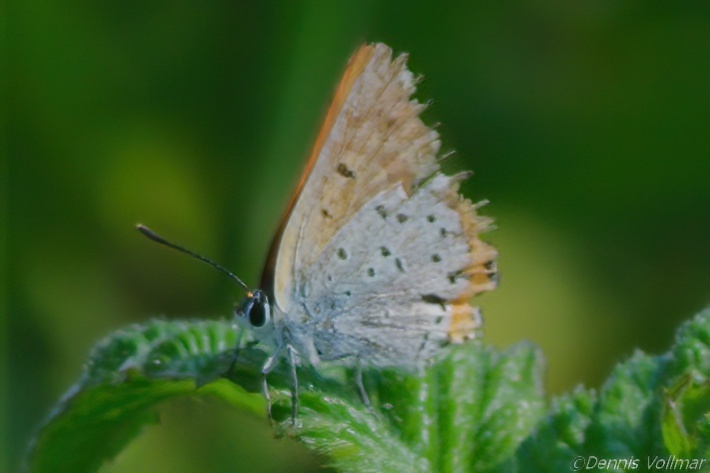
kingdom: Animalia
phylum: Arthropoda
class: Insecta
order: Lepidoptera
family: Lycaenidae
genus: Lycaena
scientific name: Lycaena hypophlaeas
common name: American copper
